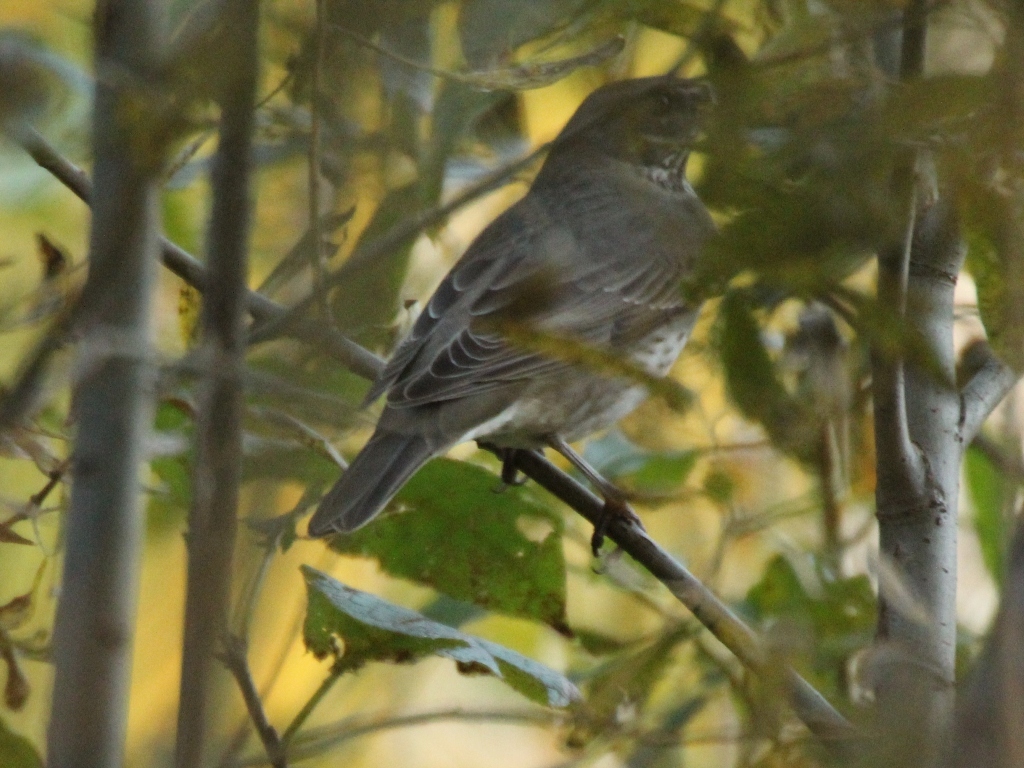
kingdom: Animalia
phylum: Chordata
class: Aves
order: Passeriformes
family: Turdidae
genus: Turdus
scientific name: Turdus atrogularis
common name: Black-throated thrush
